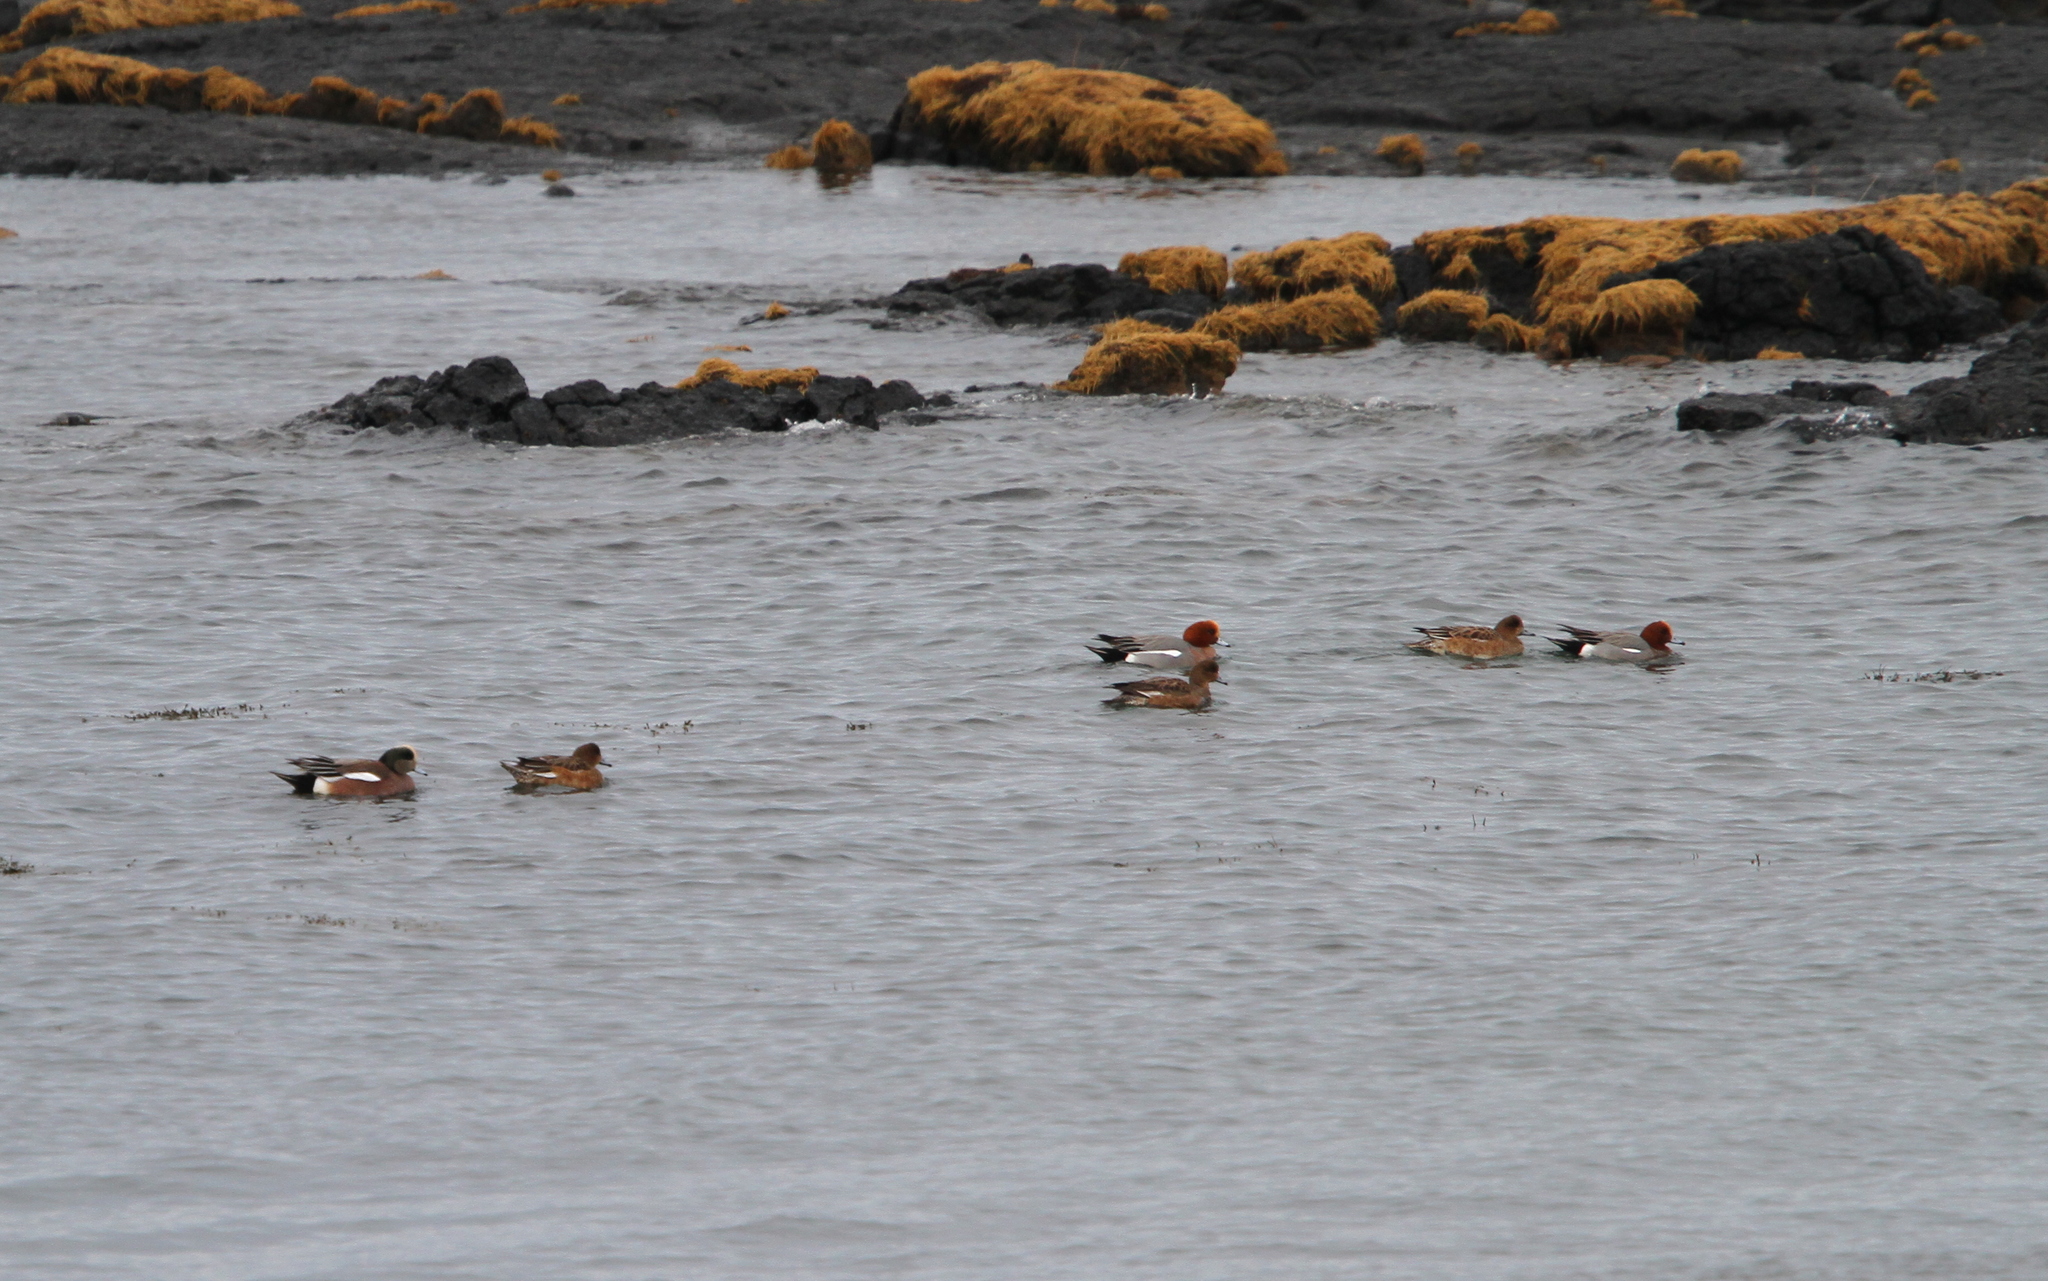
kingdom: Animalia
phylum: Chordata
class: Aves
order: Anseriformes
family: Anatidae
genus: Mareca
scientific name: Mareca americana
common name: American wigeon
